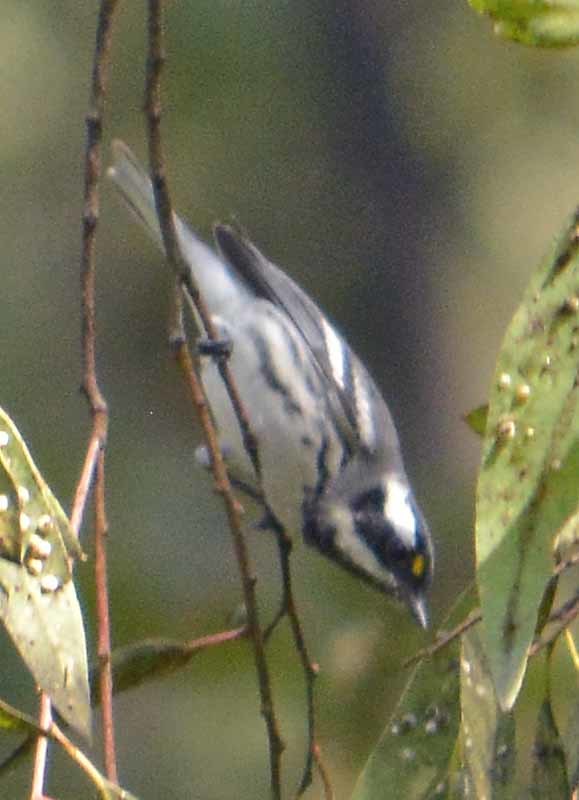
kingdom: Animalia
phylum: Chordata
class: Aves
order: Passeriformes
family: Parulidae
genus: Setophaga
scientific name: Setophaga nigrescens
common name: Black-throated gray warbler
